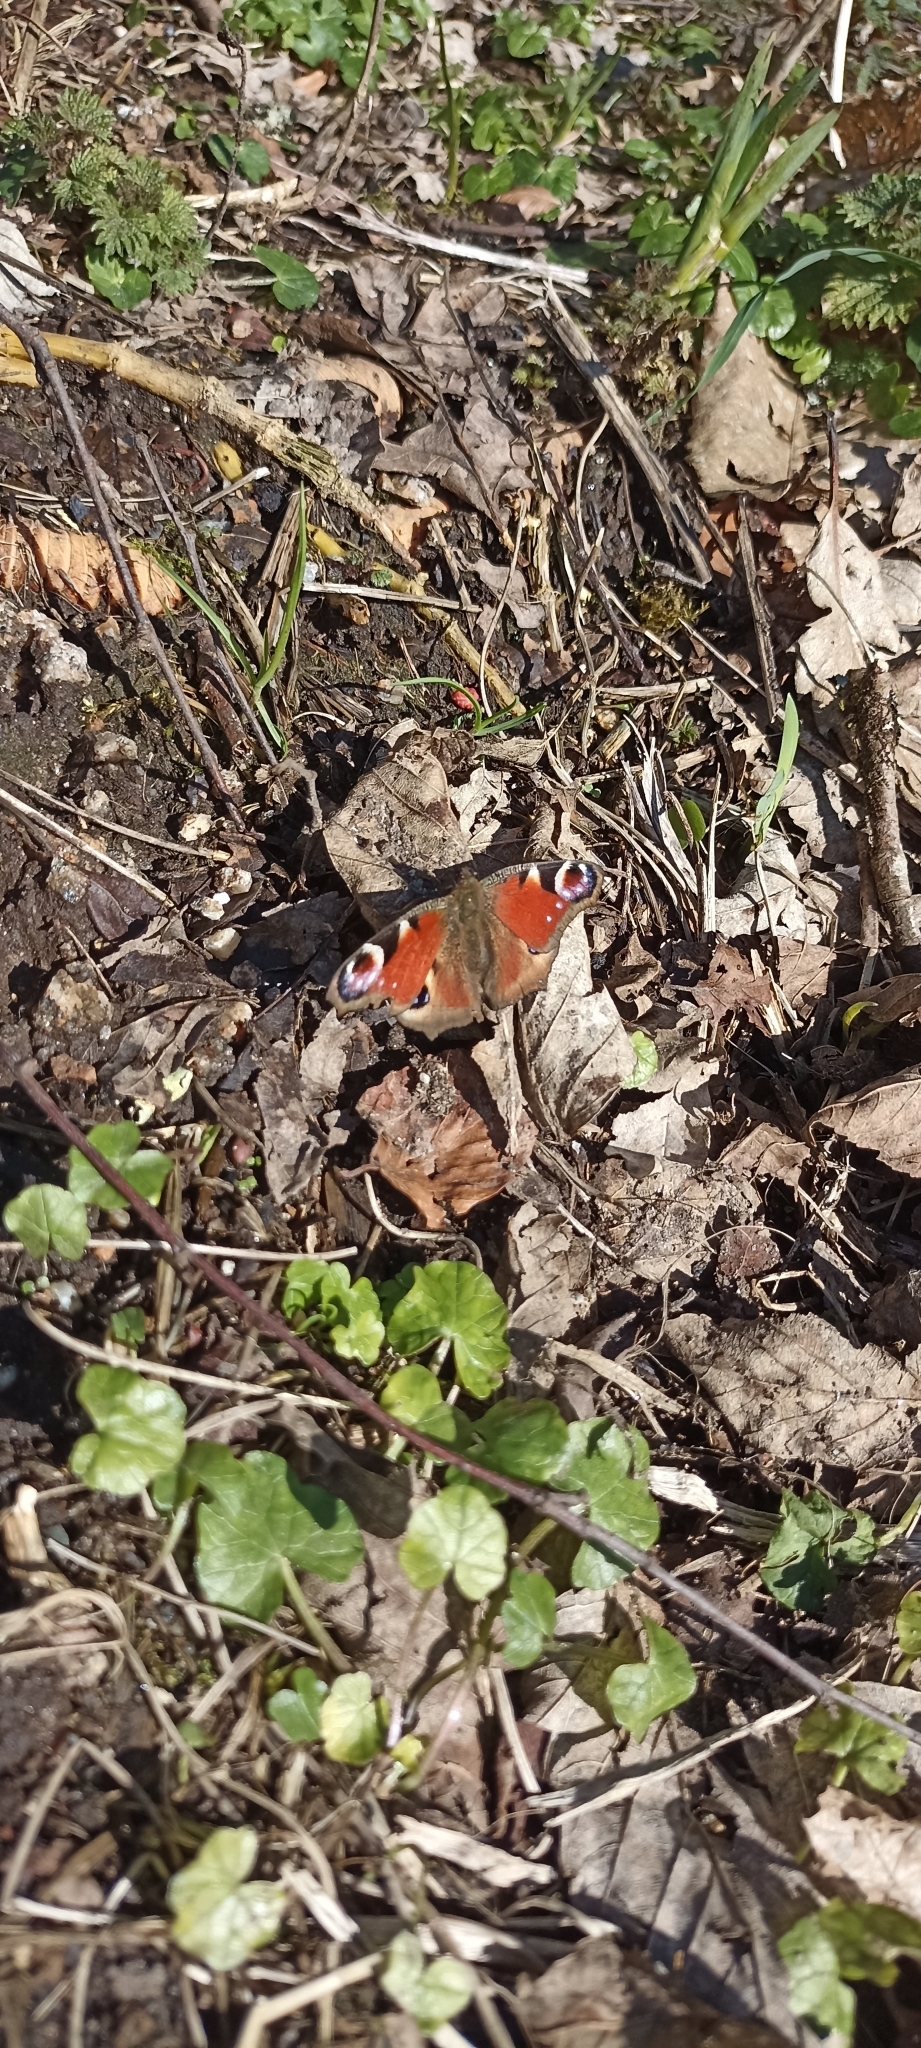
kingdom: Animalia
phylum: Arthropoda
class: Insecta
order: Lepidoptera
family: Nymphalidae
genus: Aglais
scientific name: Aglais io
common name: Peacock
